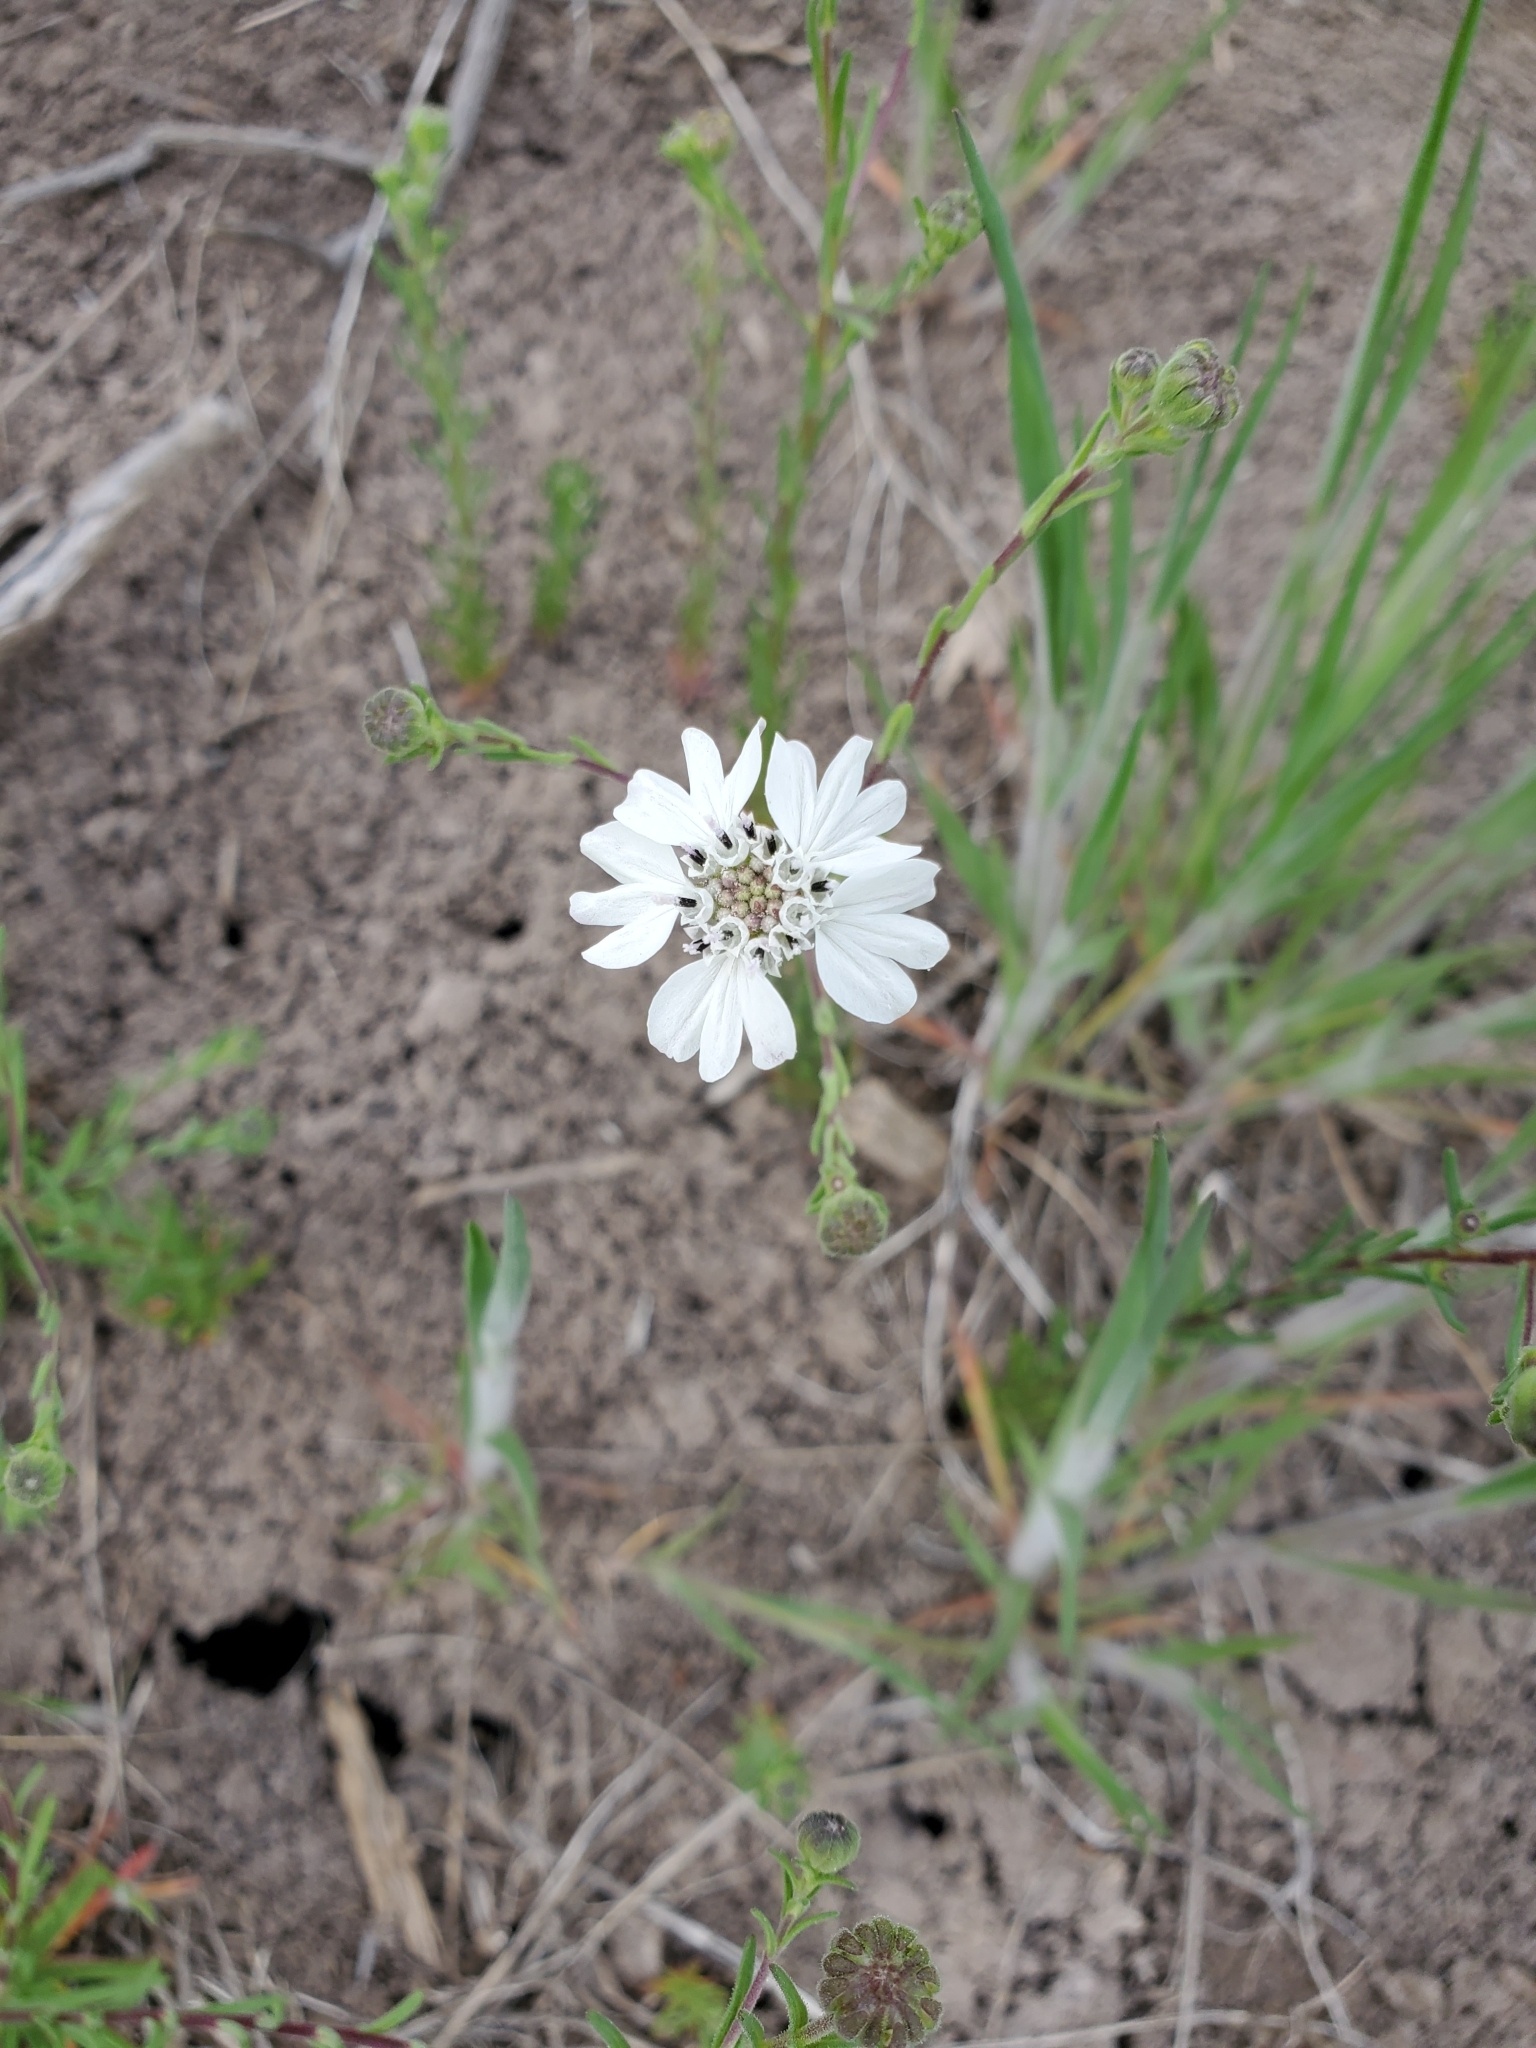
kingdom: Plantae
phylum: Tracheophyta
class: Magnoliopsida
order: Asterales
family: Asteraceae
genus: Blepharipappus
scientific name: Blepharipappus scaber
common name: Rough blepharipappus
